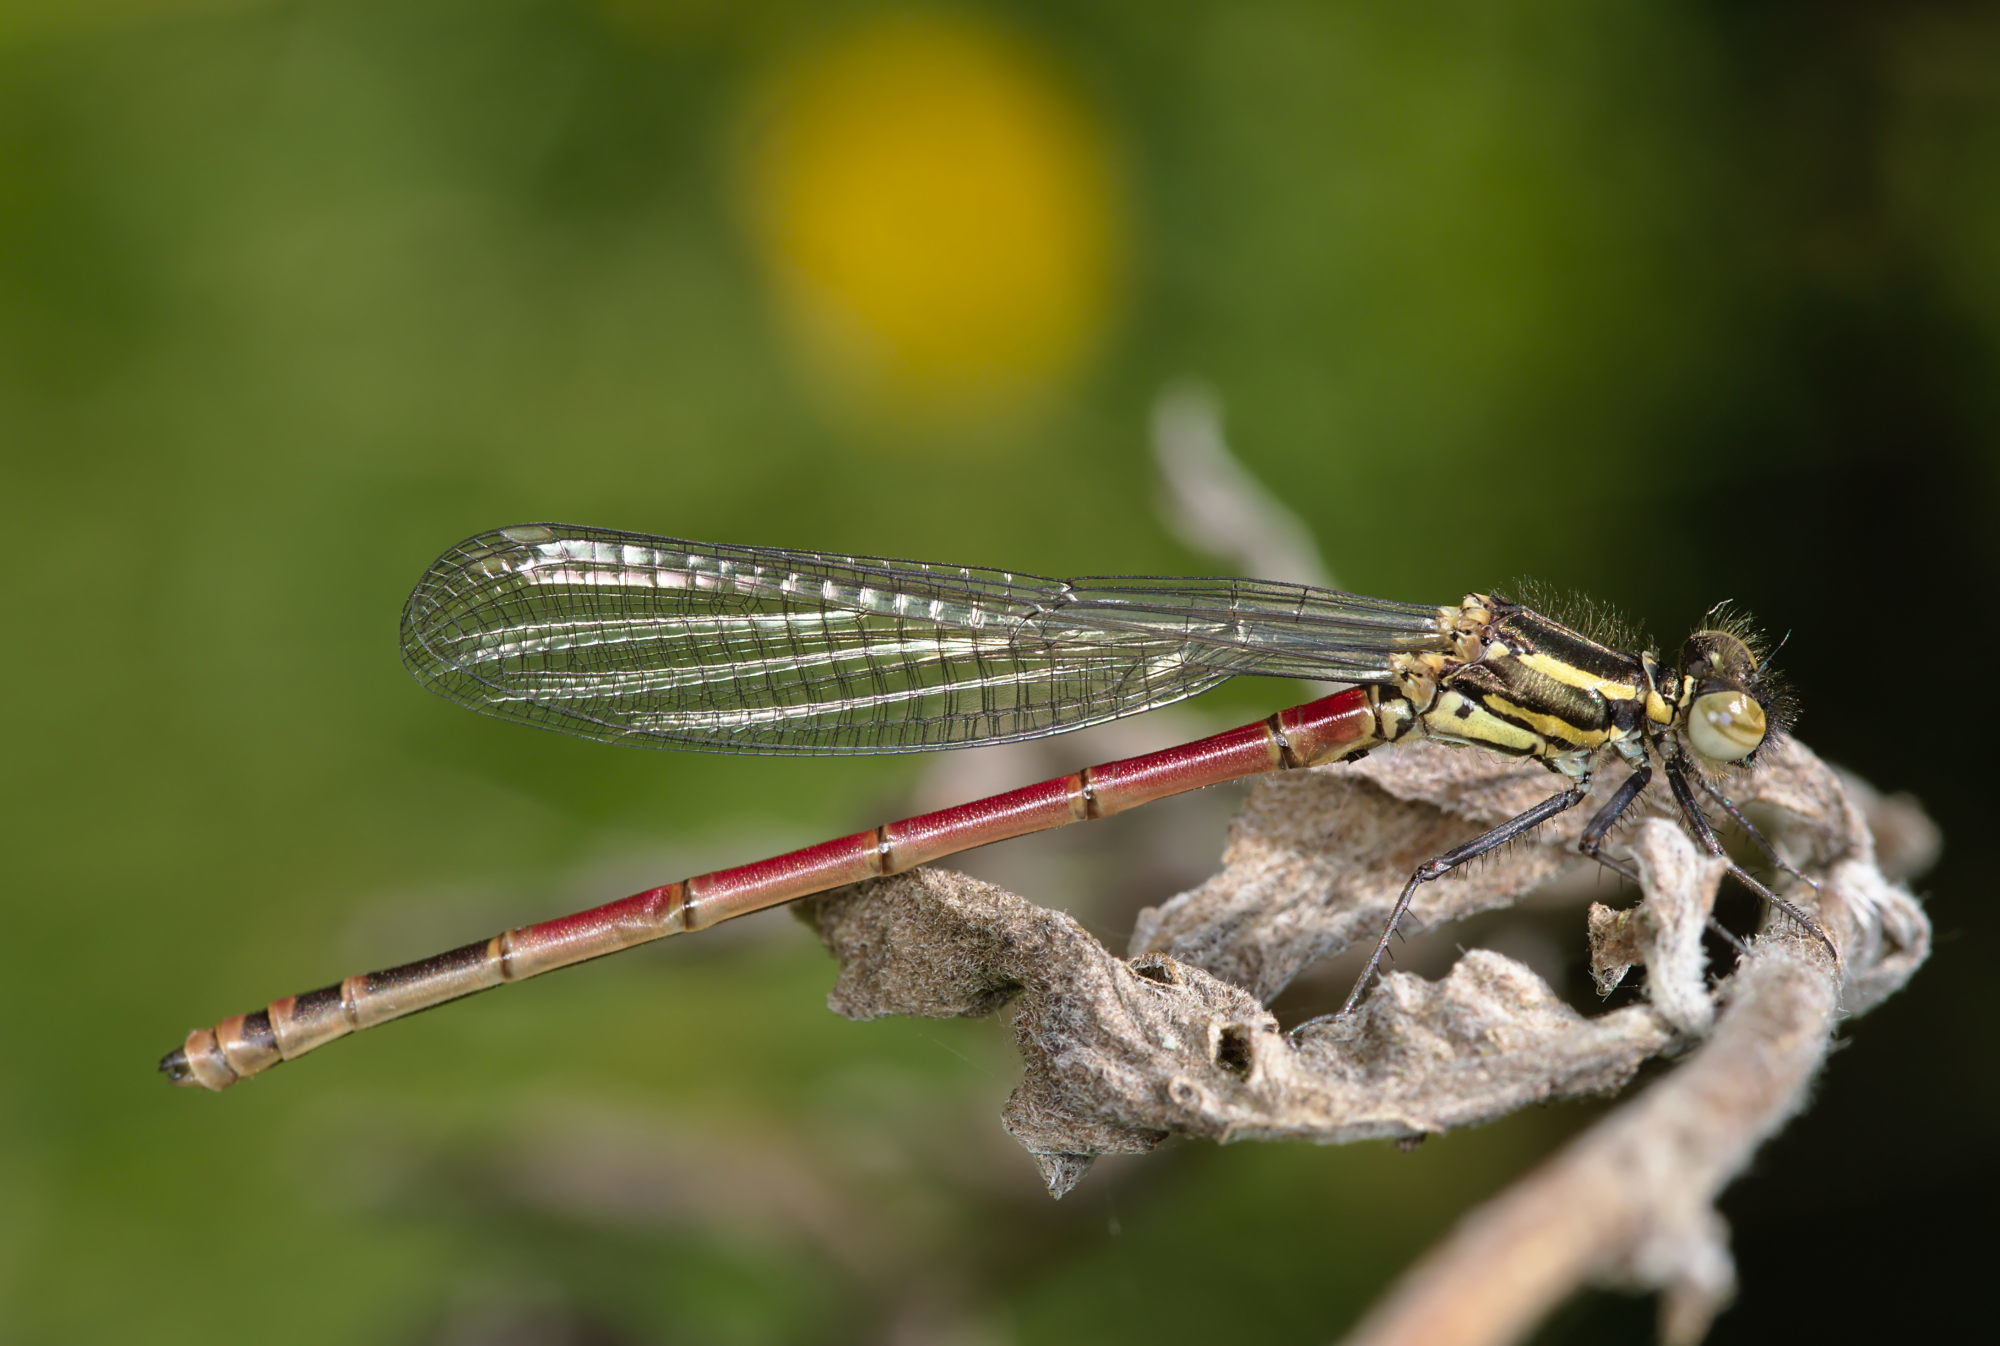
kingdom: Animalia
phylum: Arthropoda
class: Insecta
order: Odonata
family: Coenagrionidae
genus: Pyrrhosoma
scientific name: Pyrrhosoma nymphula
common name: Large red damsel
